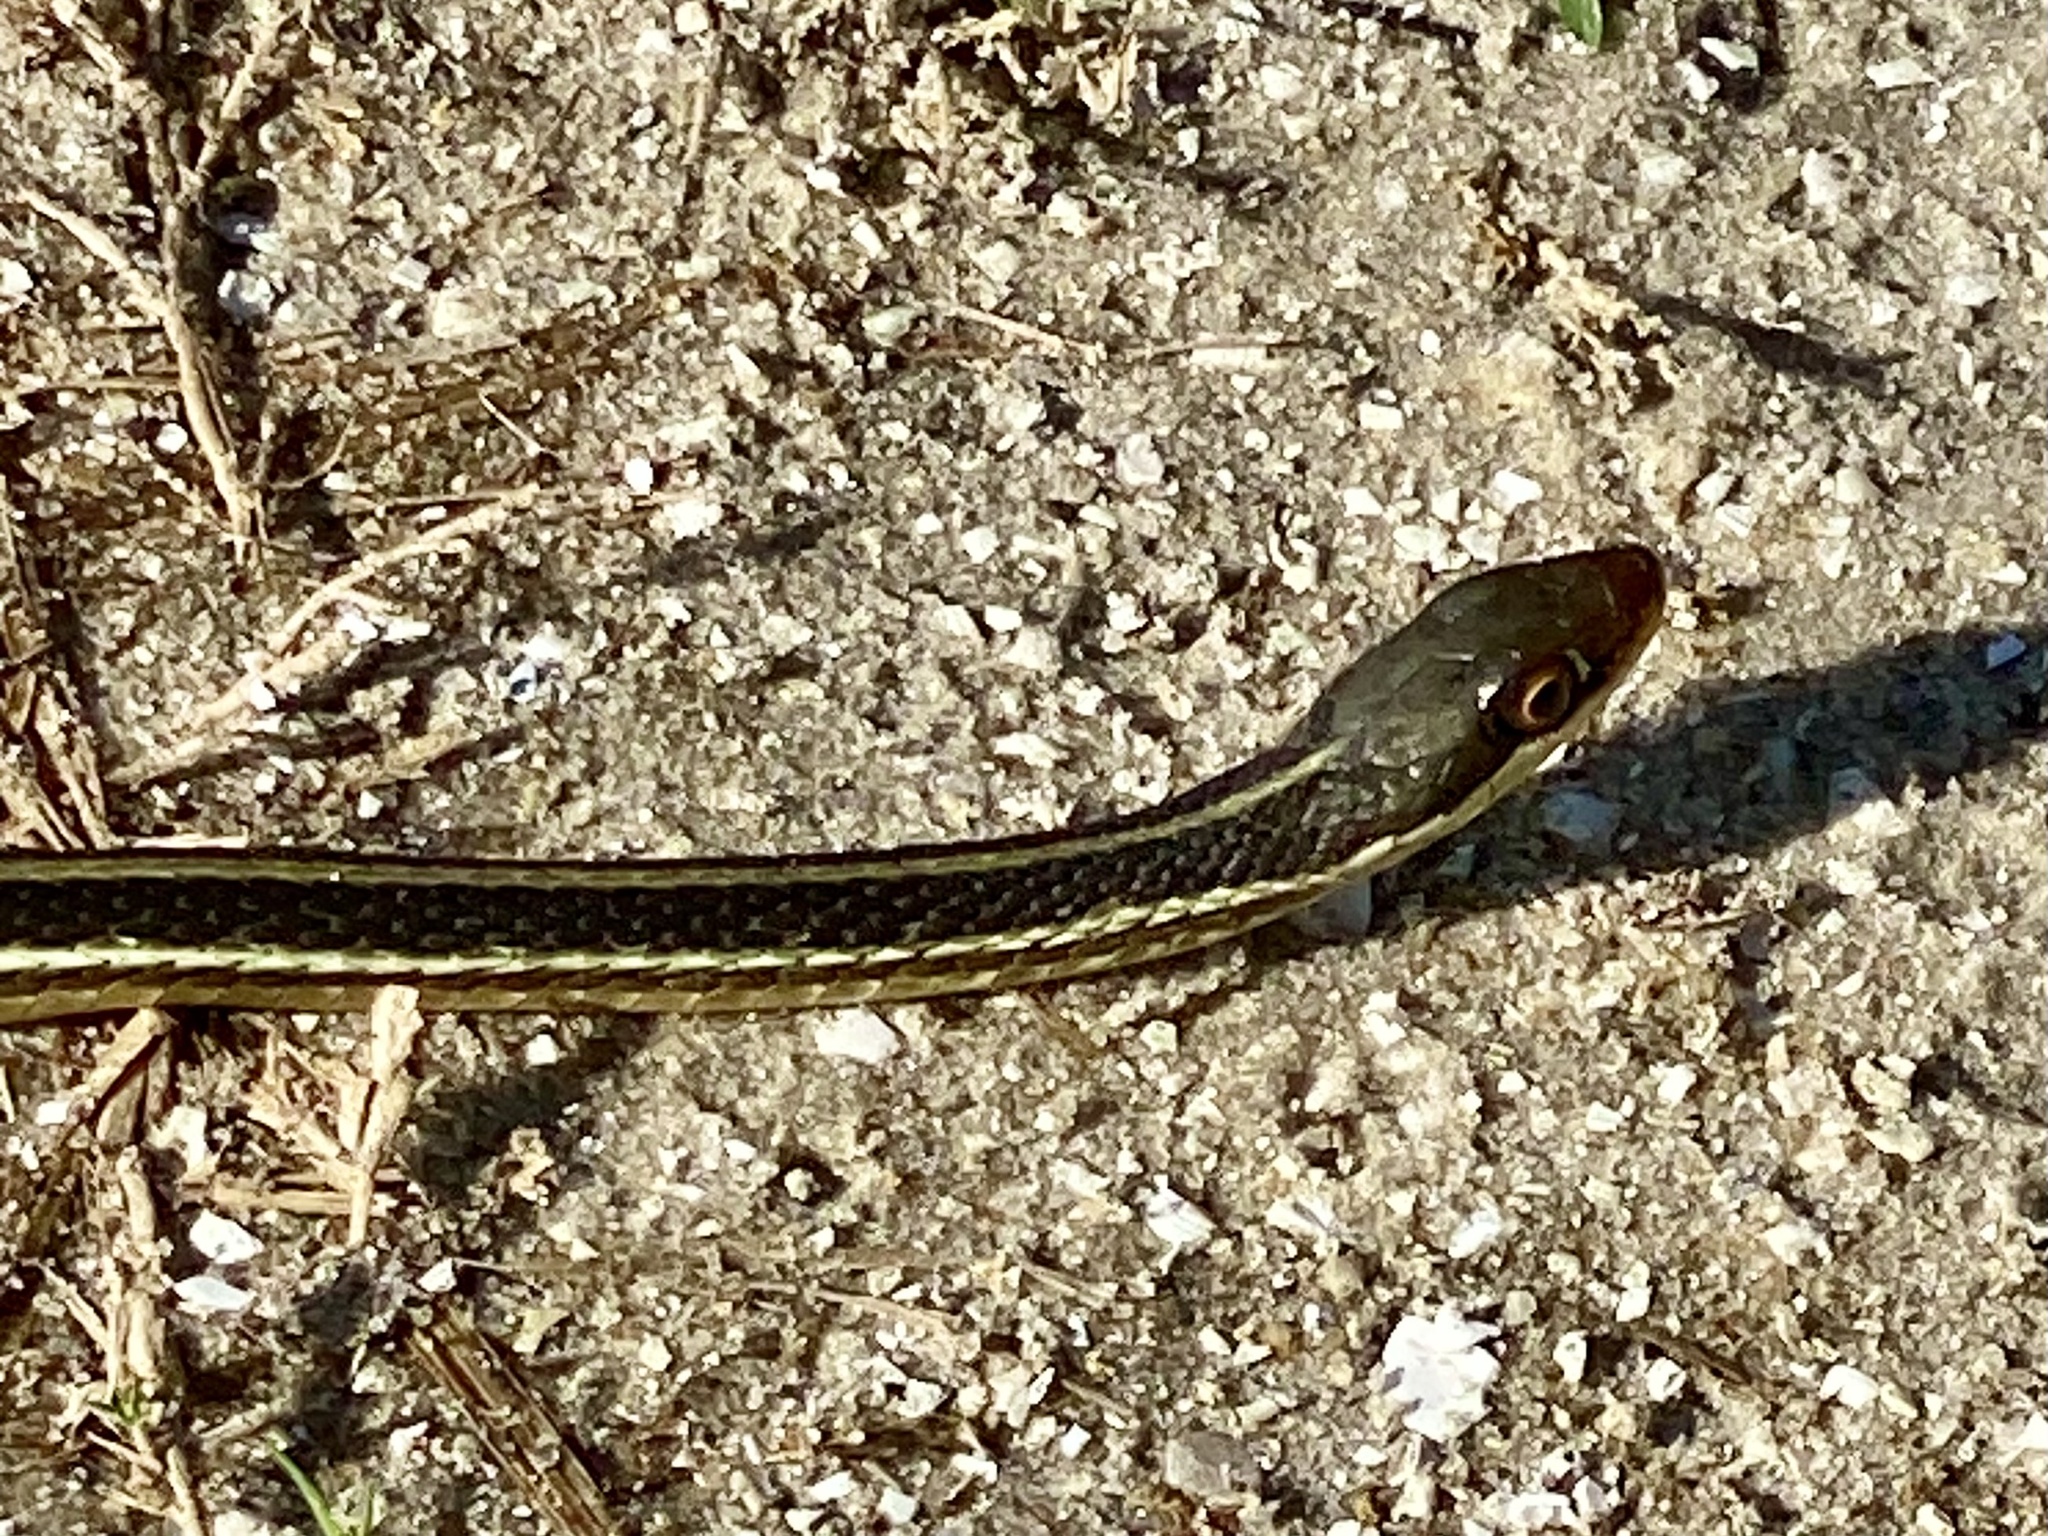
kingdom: Animalia
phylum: Chordata
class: Squamata
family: Colubridae
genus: Thamnophis
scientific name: Thamnophis saurita
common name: Eastern ribbonsnake
